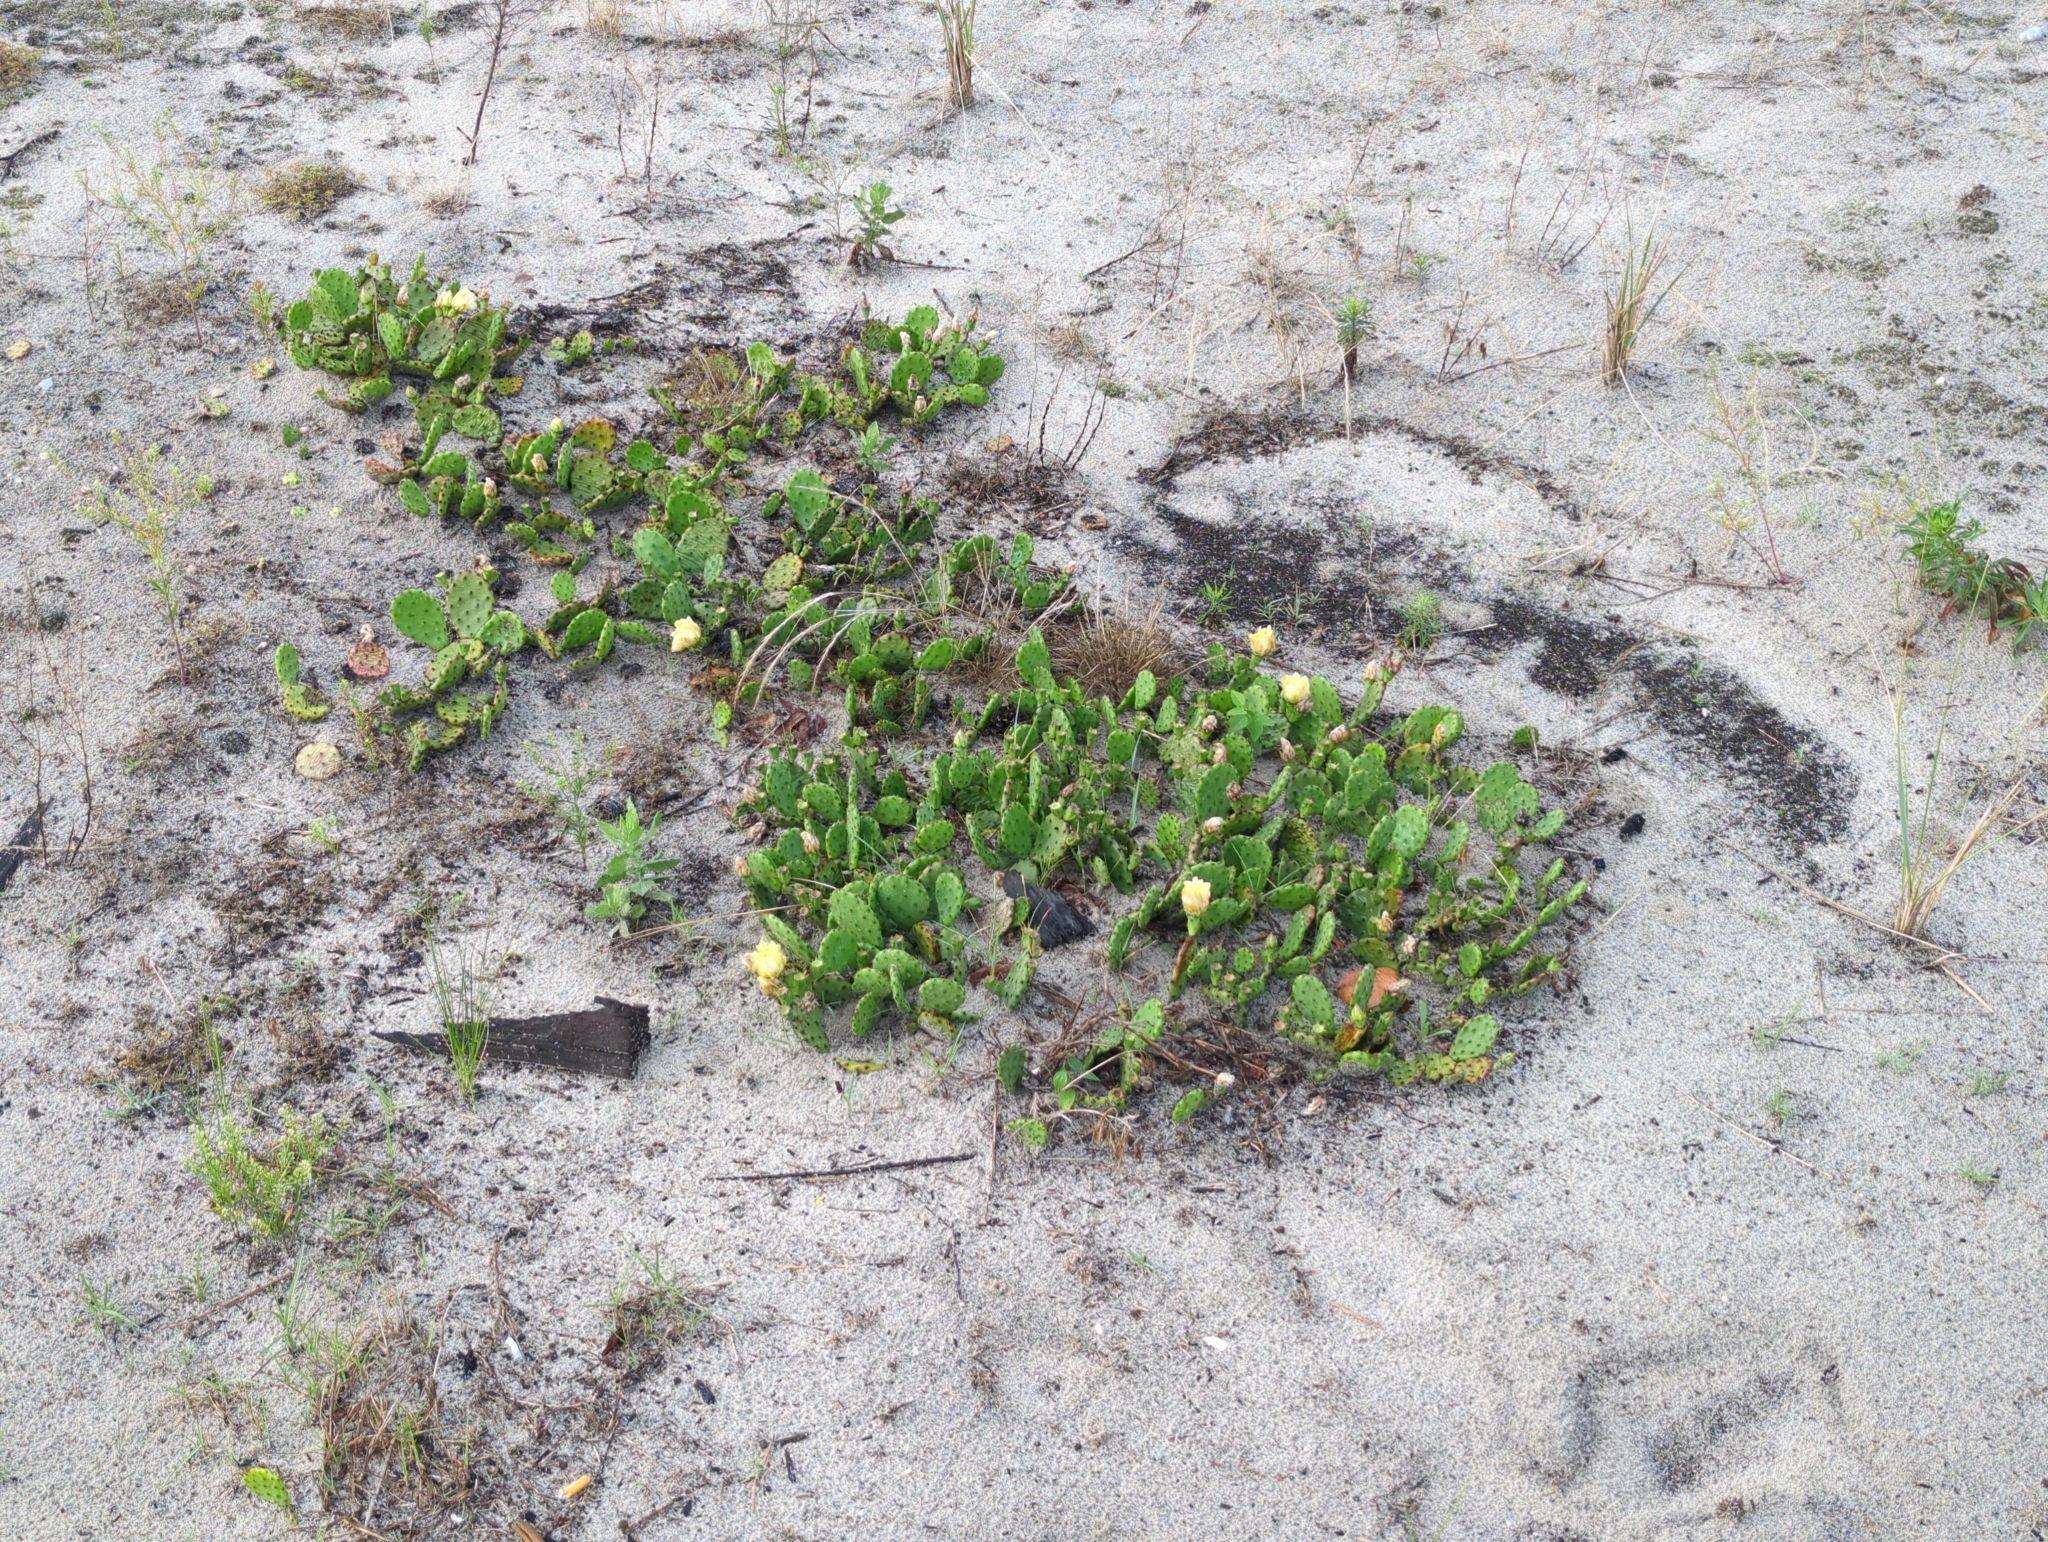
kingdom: Plantae
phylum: Tracheophyta
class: Magnoliopsida
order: Caryophyllales
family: Cactaceae
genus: Opuntia
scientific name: Opuntia humifusa
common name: Eastern prickly-pear
